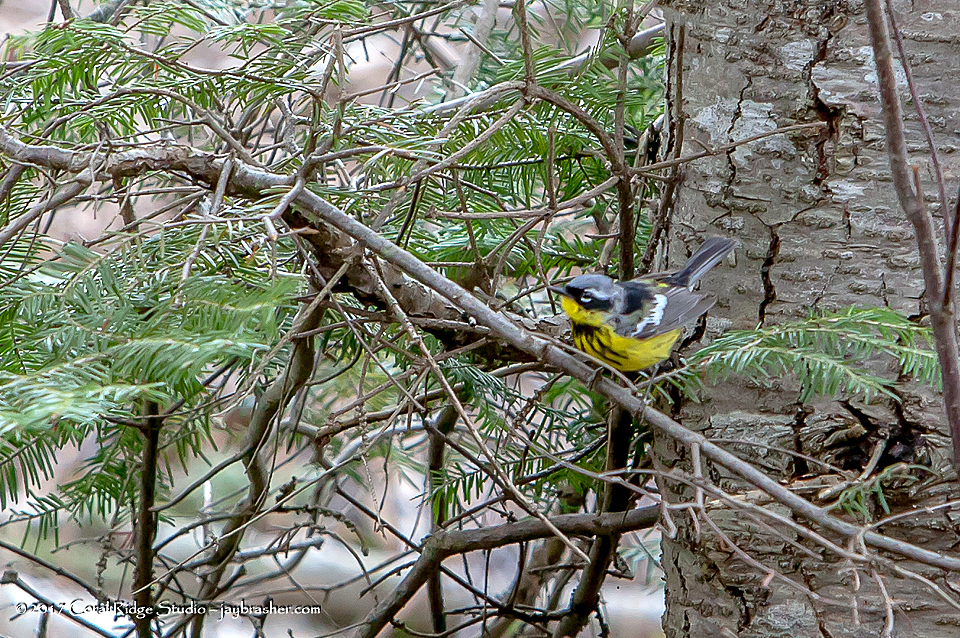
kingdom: Animalia
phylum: Chordata
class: Aves
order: Passeriformes
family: Parulidae
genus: Setophaga
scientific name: Setophaga magnolia
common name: Magnolia warbler
